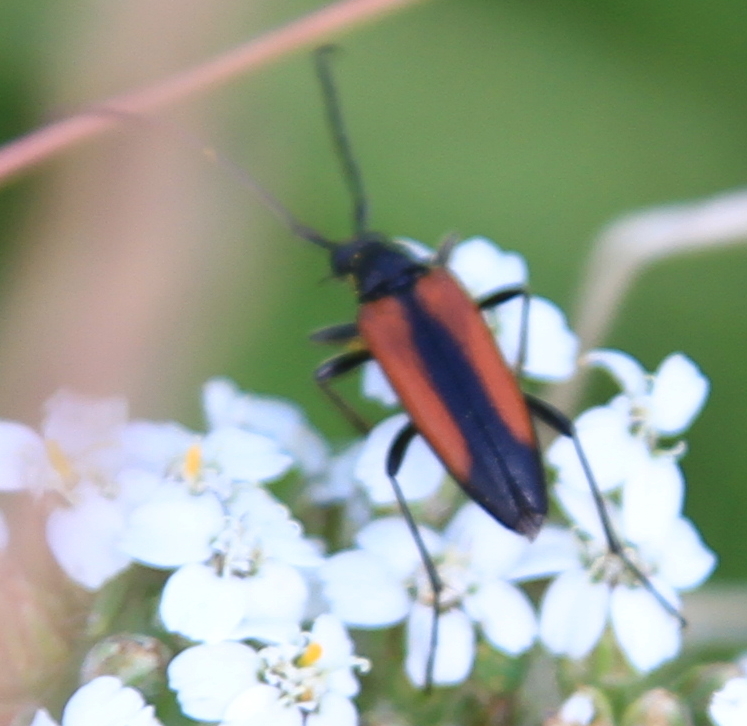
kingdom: Animalia
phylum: Arthropoda
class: Insecta
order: Coleoptera
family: Cerambycidae
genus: Stenurella
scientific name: Stenurella melanura
